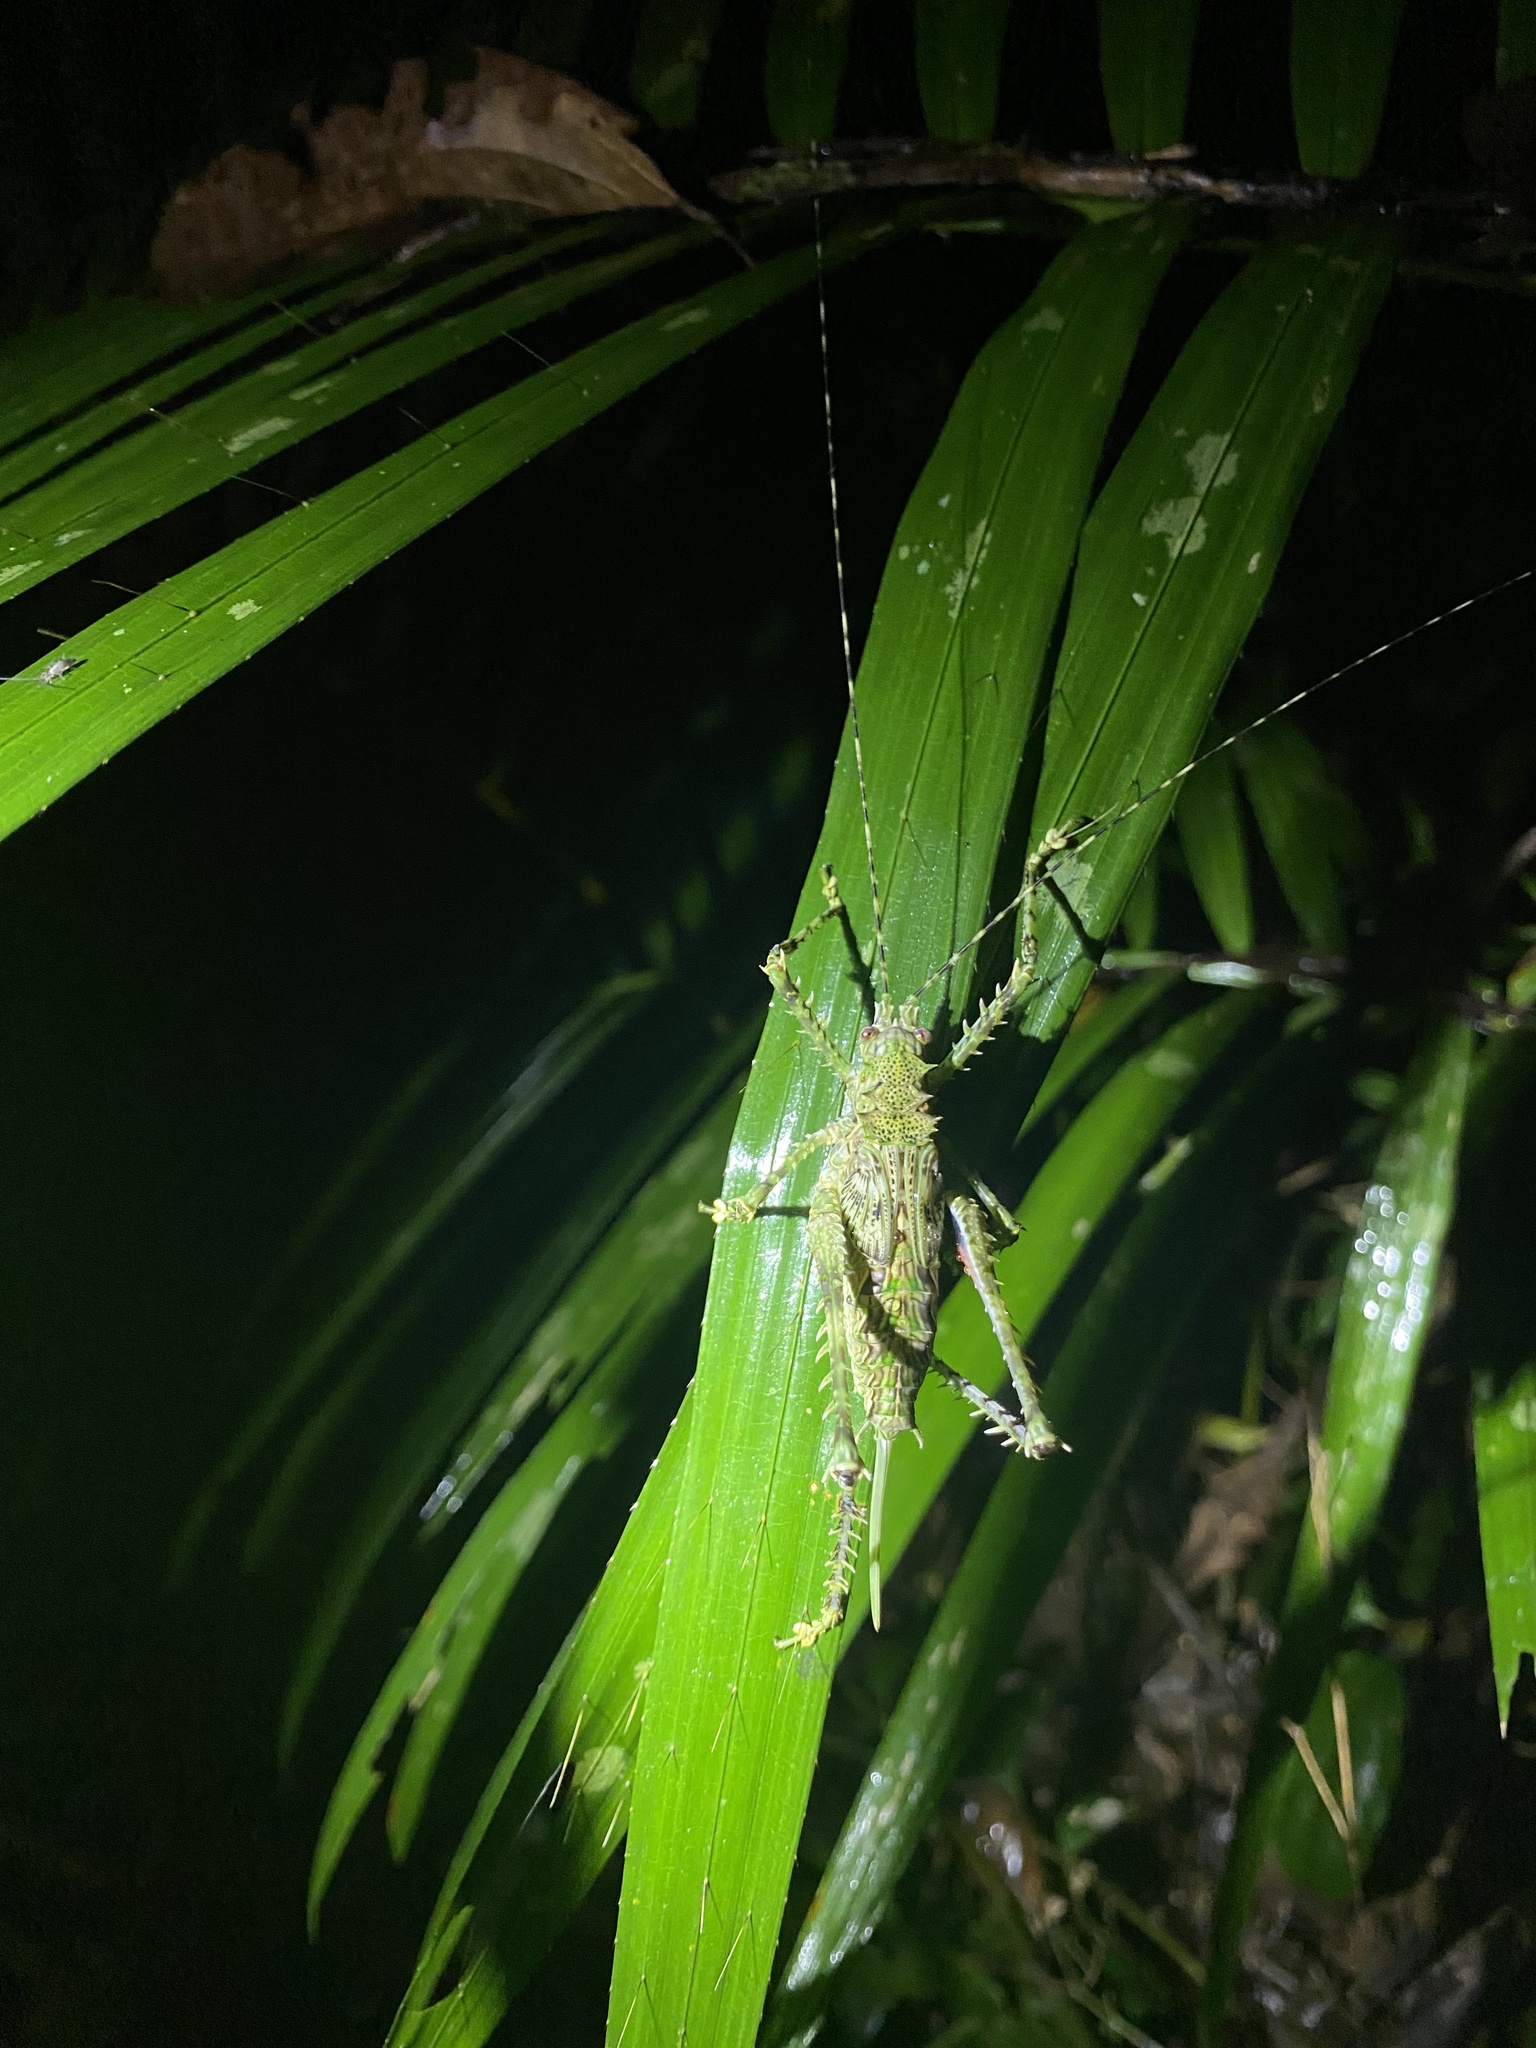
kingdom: Animalia
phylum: Arthropoda
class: Insecta
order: Orthoptera
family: Tettigoniidae
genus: Phricta
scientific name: Phricta spinosa
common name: Giant spiny forest katydid
